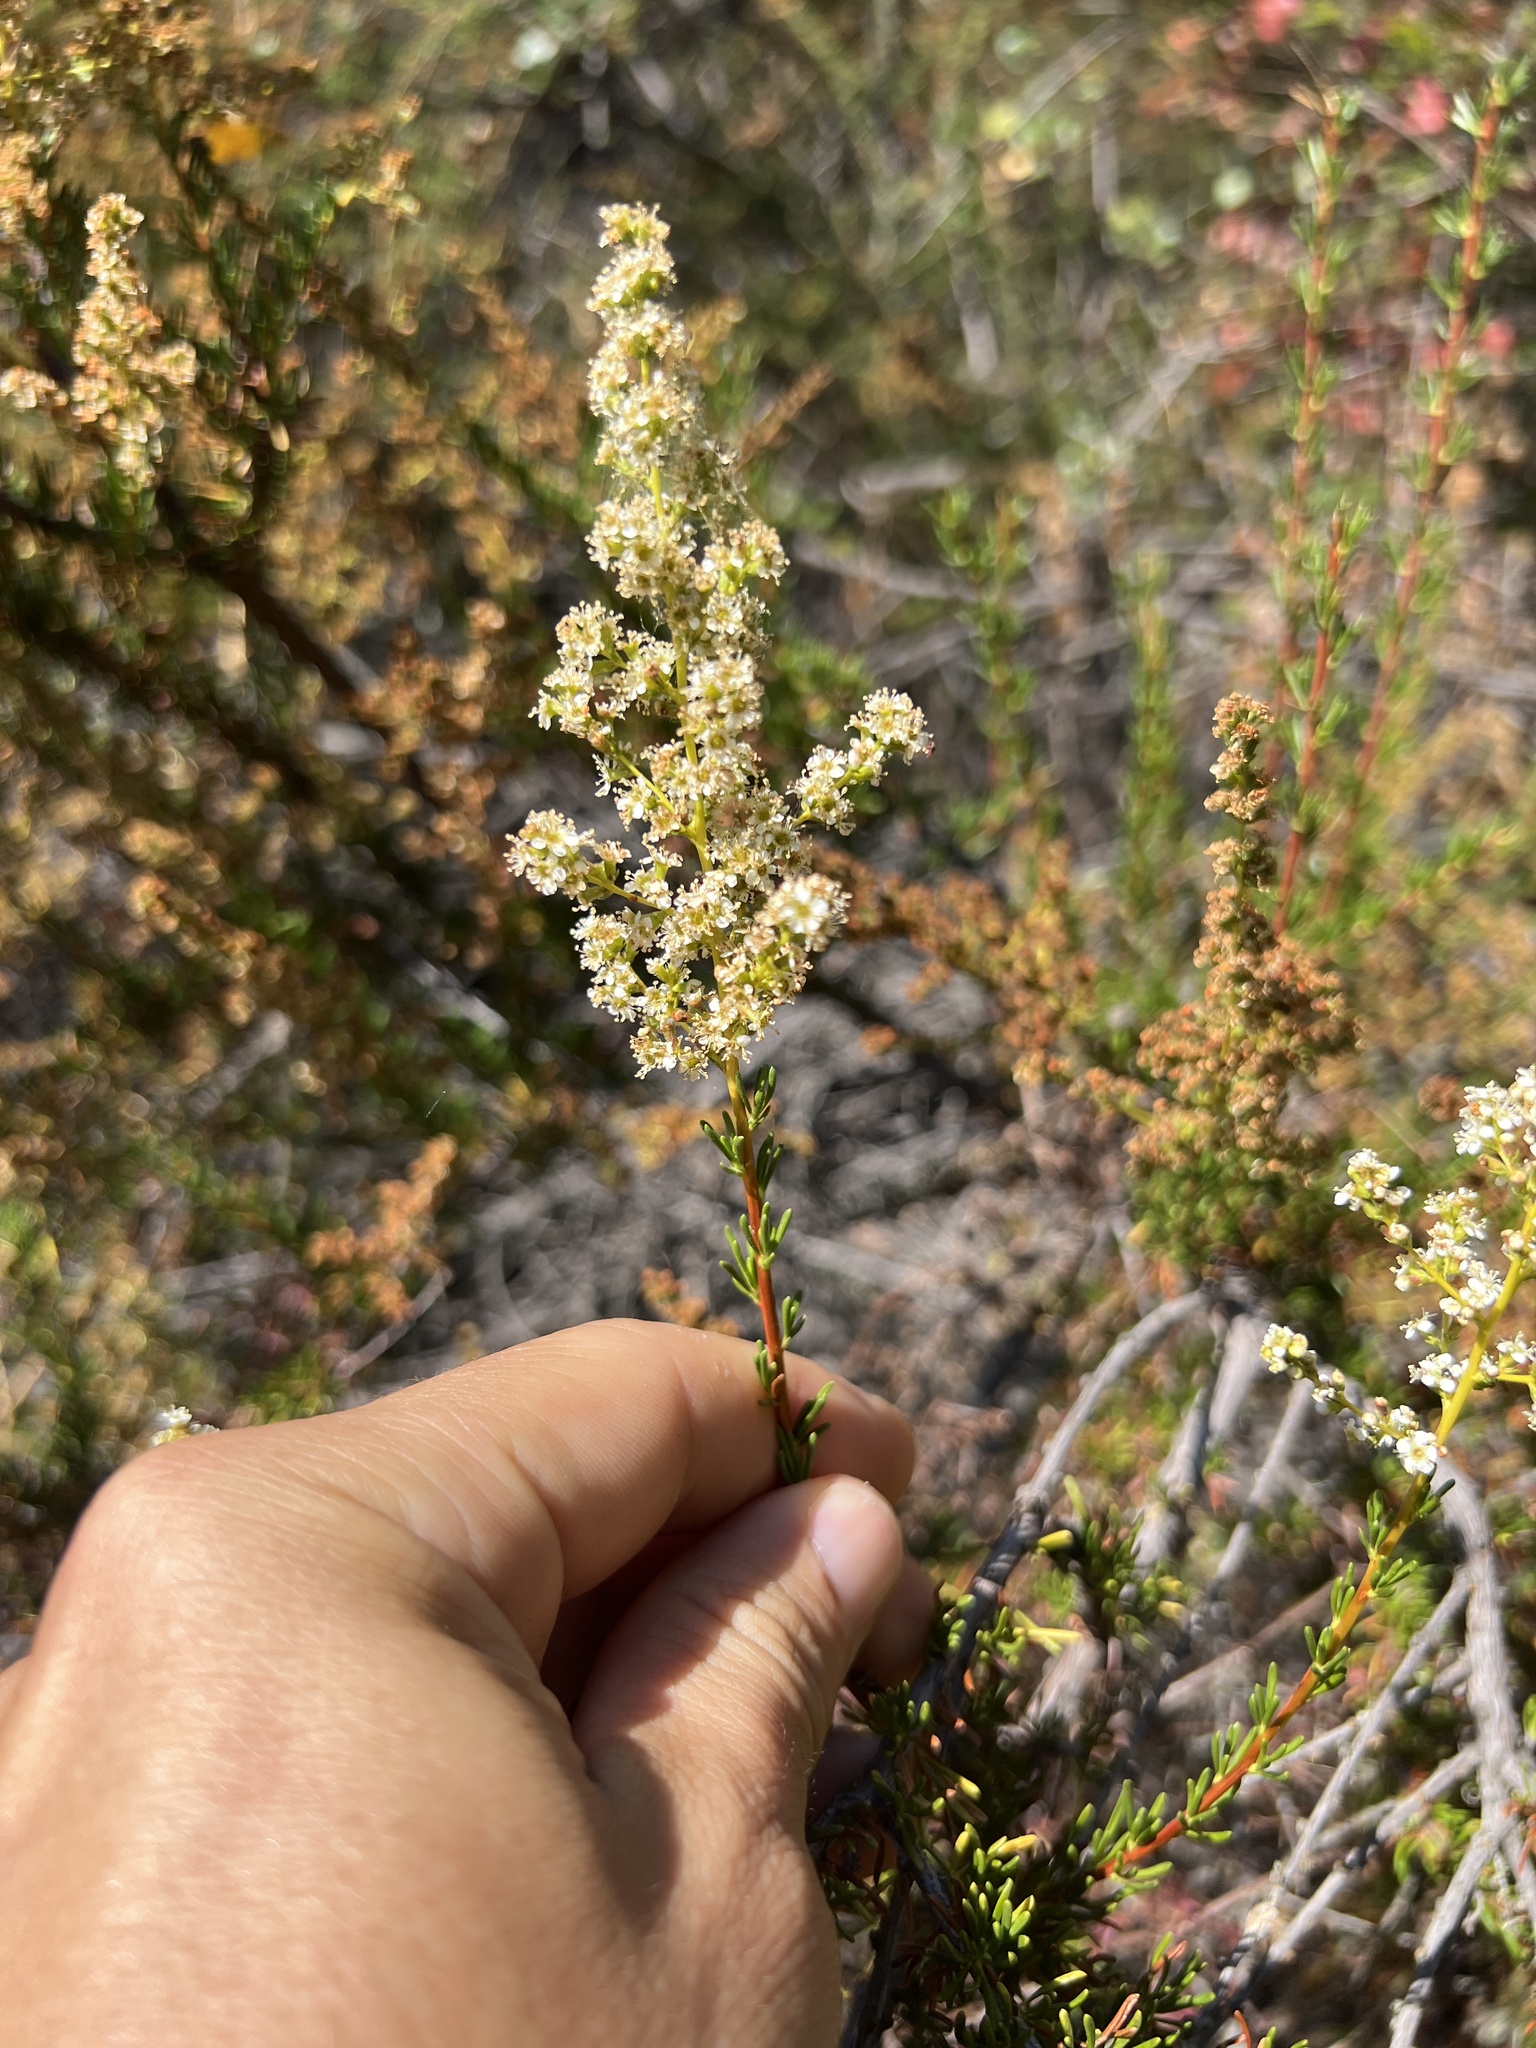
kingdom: Plantae
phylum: Tracheophyta
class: Magnoliopsida
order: Rosales
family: Rosaceae
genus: Adenostoma
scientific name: Adenostoma fasciculatum
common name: Chamise
